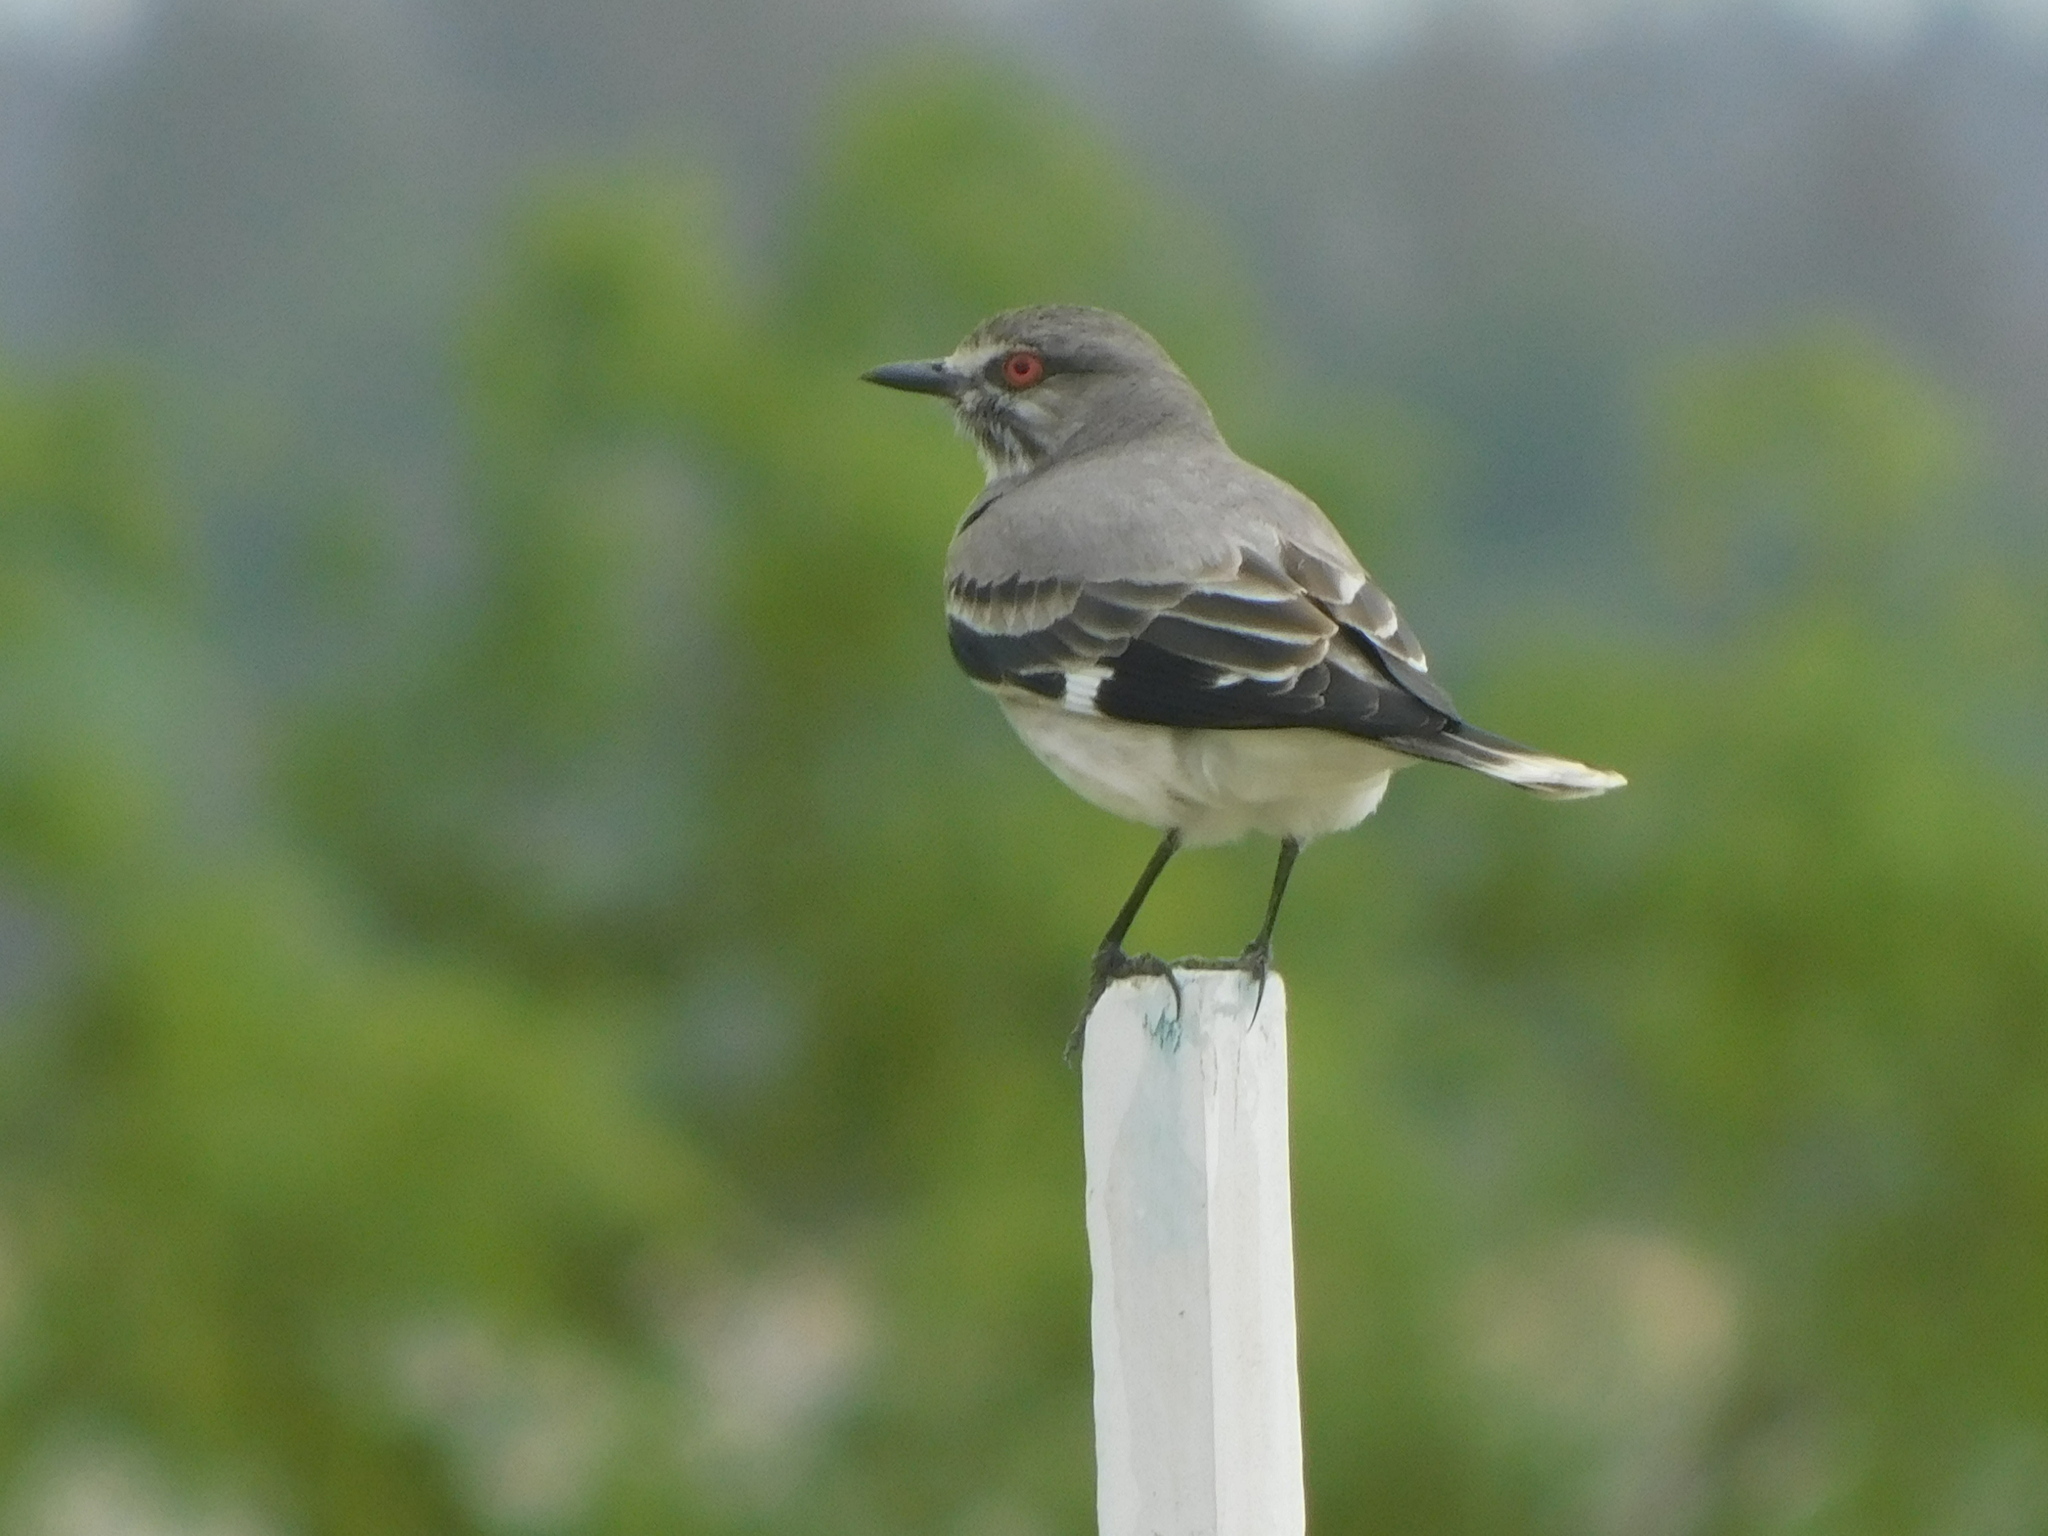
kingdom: Animalia
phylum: Chordata
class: Aves
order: Passeriformes
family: Tyrannidae
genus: Xolmis
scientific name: Xolmis cinereus
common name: Grey monjita
